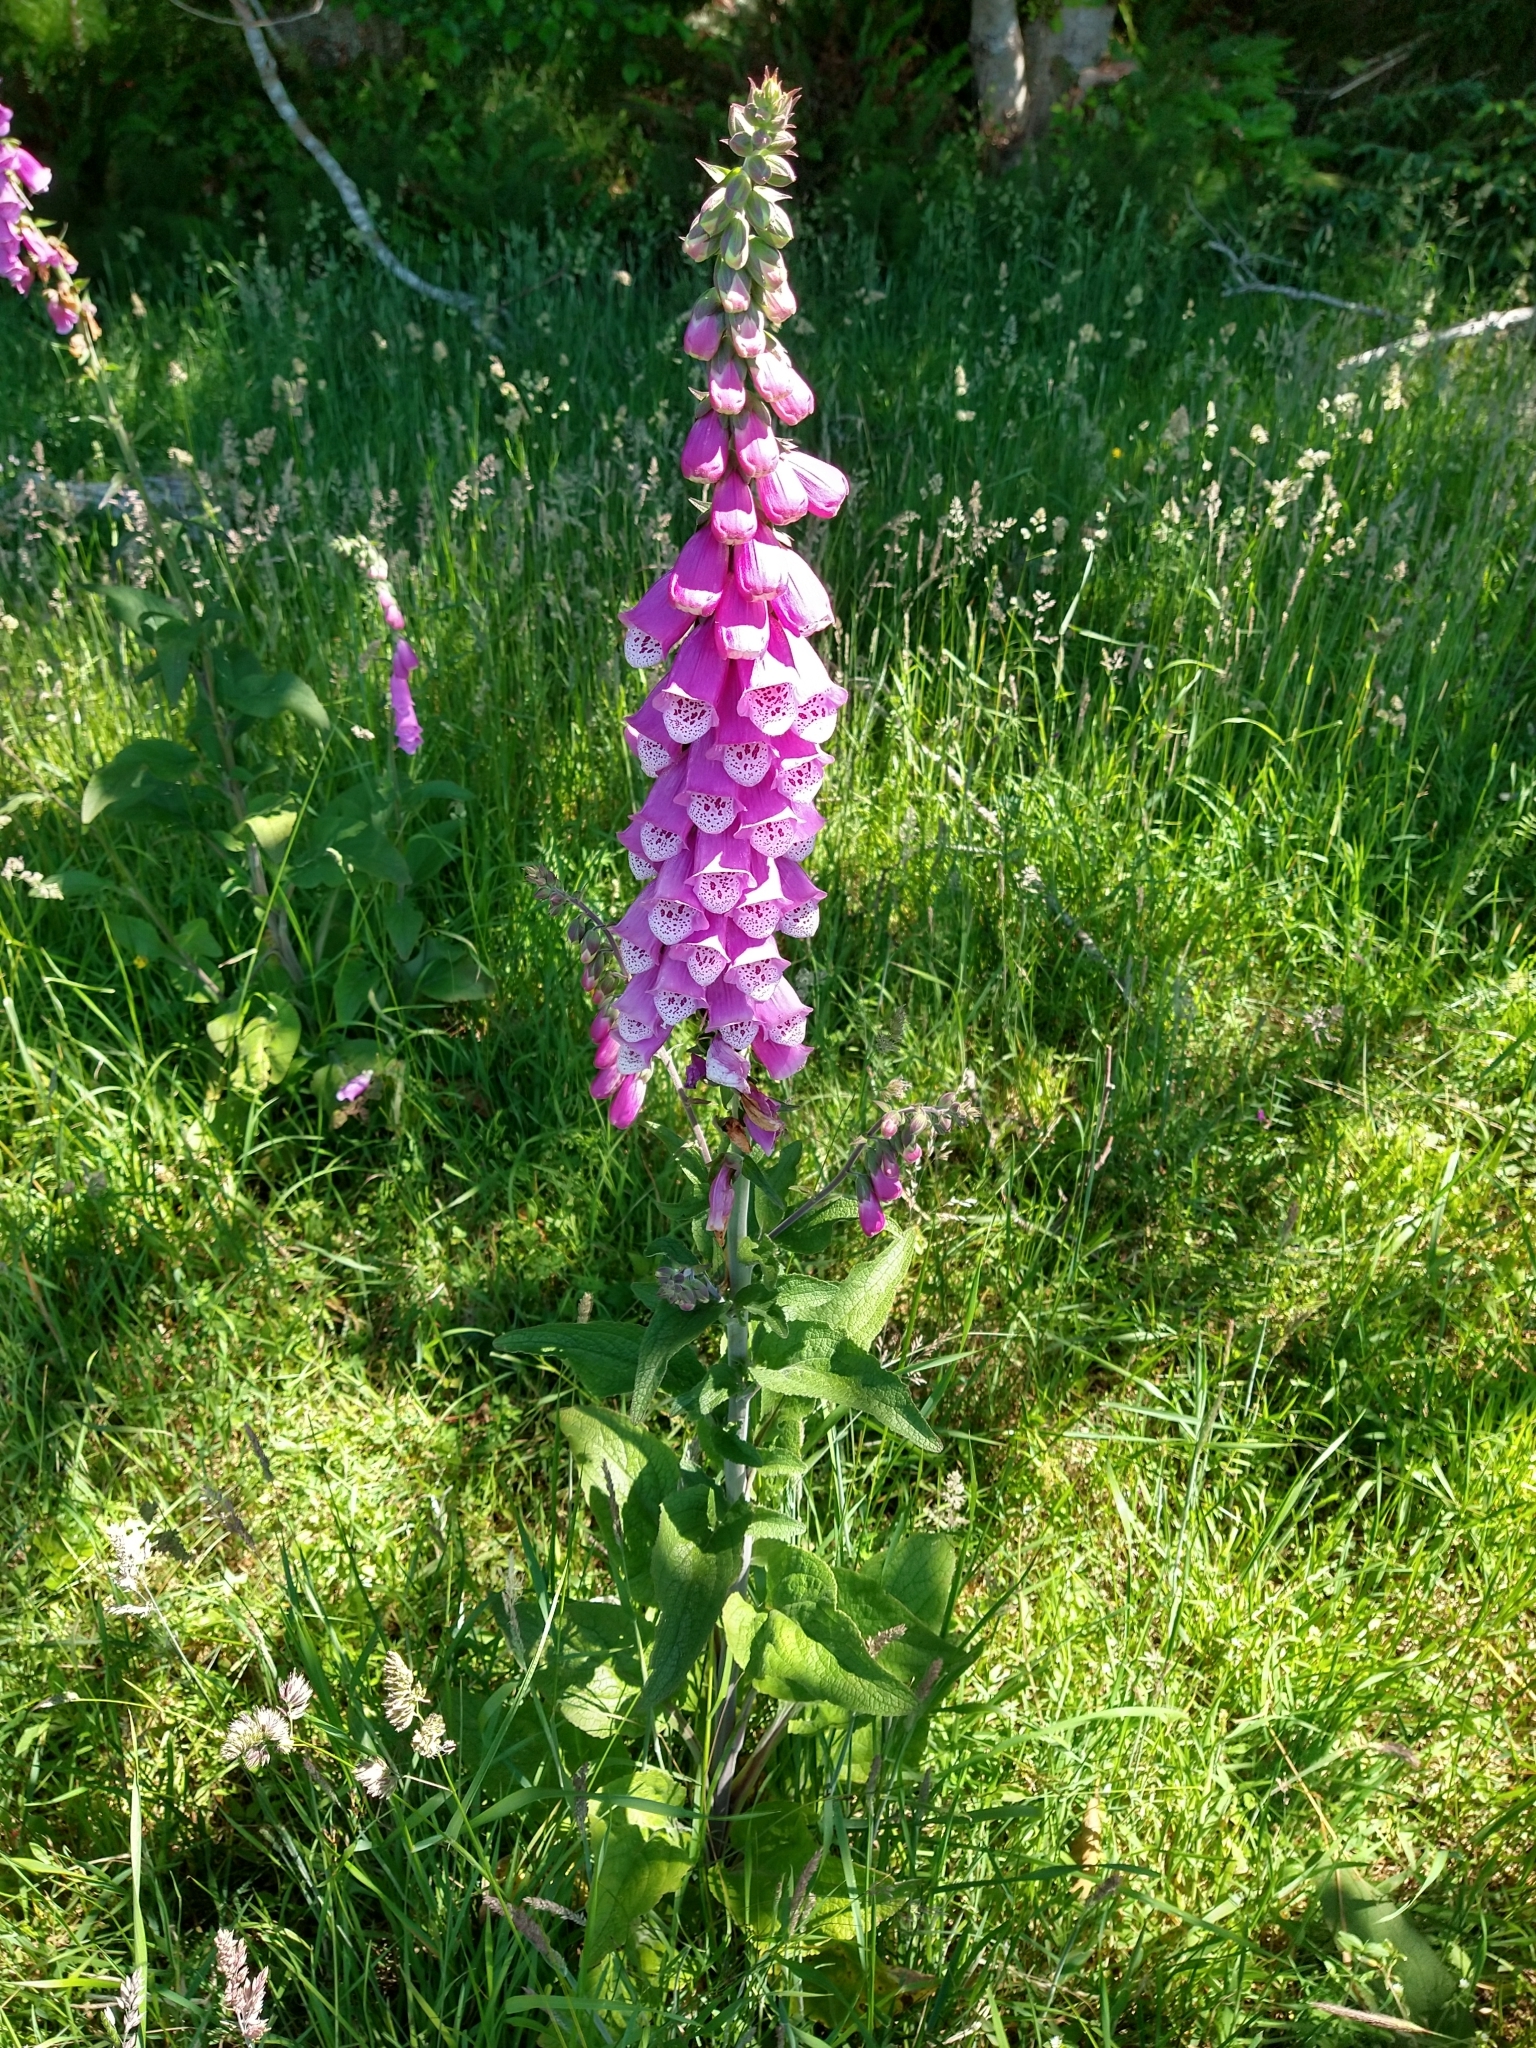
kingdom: Plantae
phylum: Tracheophyta
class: Magnoliopsida
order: Lamiales
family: Plantaginaceae
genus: Digitalis
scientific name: Digitalis purpurea
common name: Foxglove
